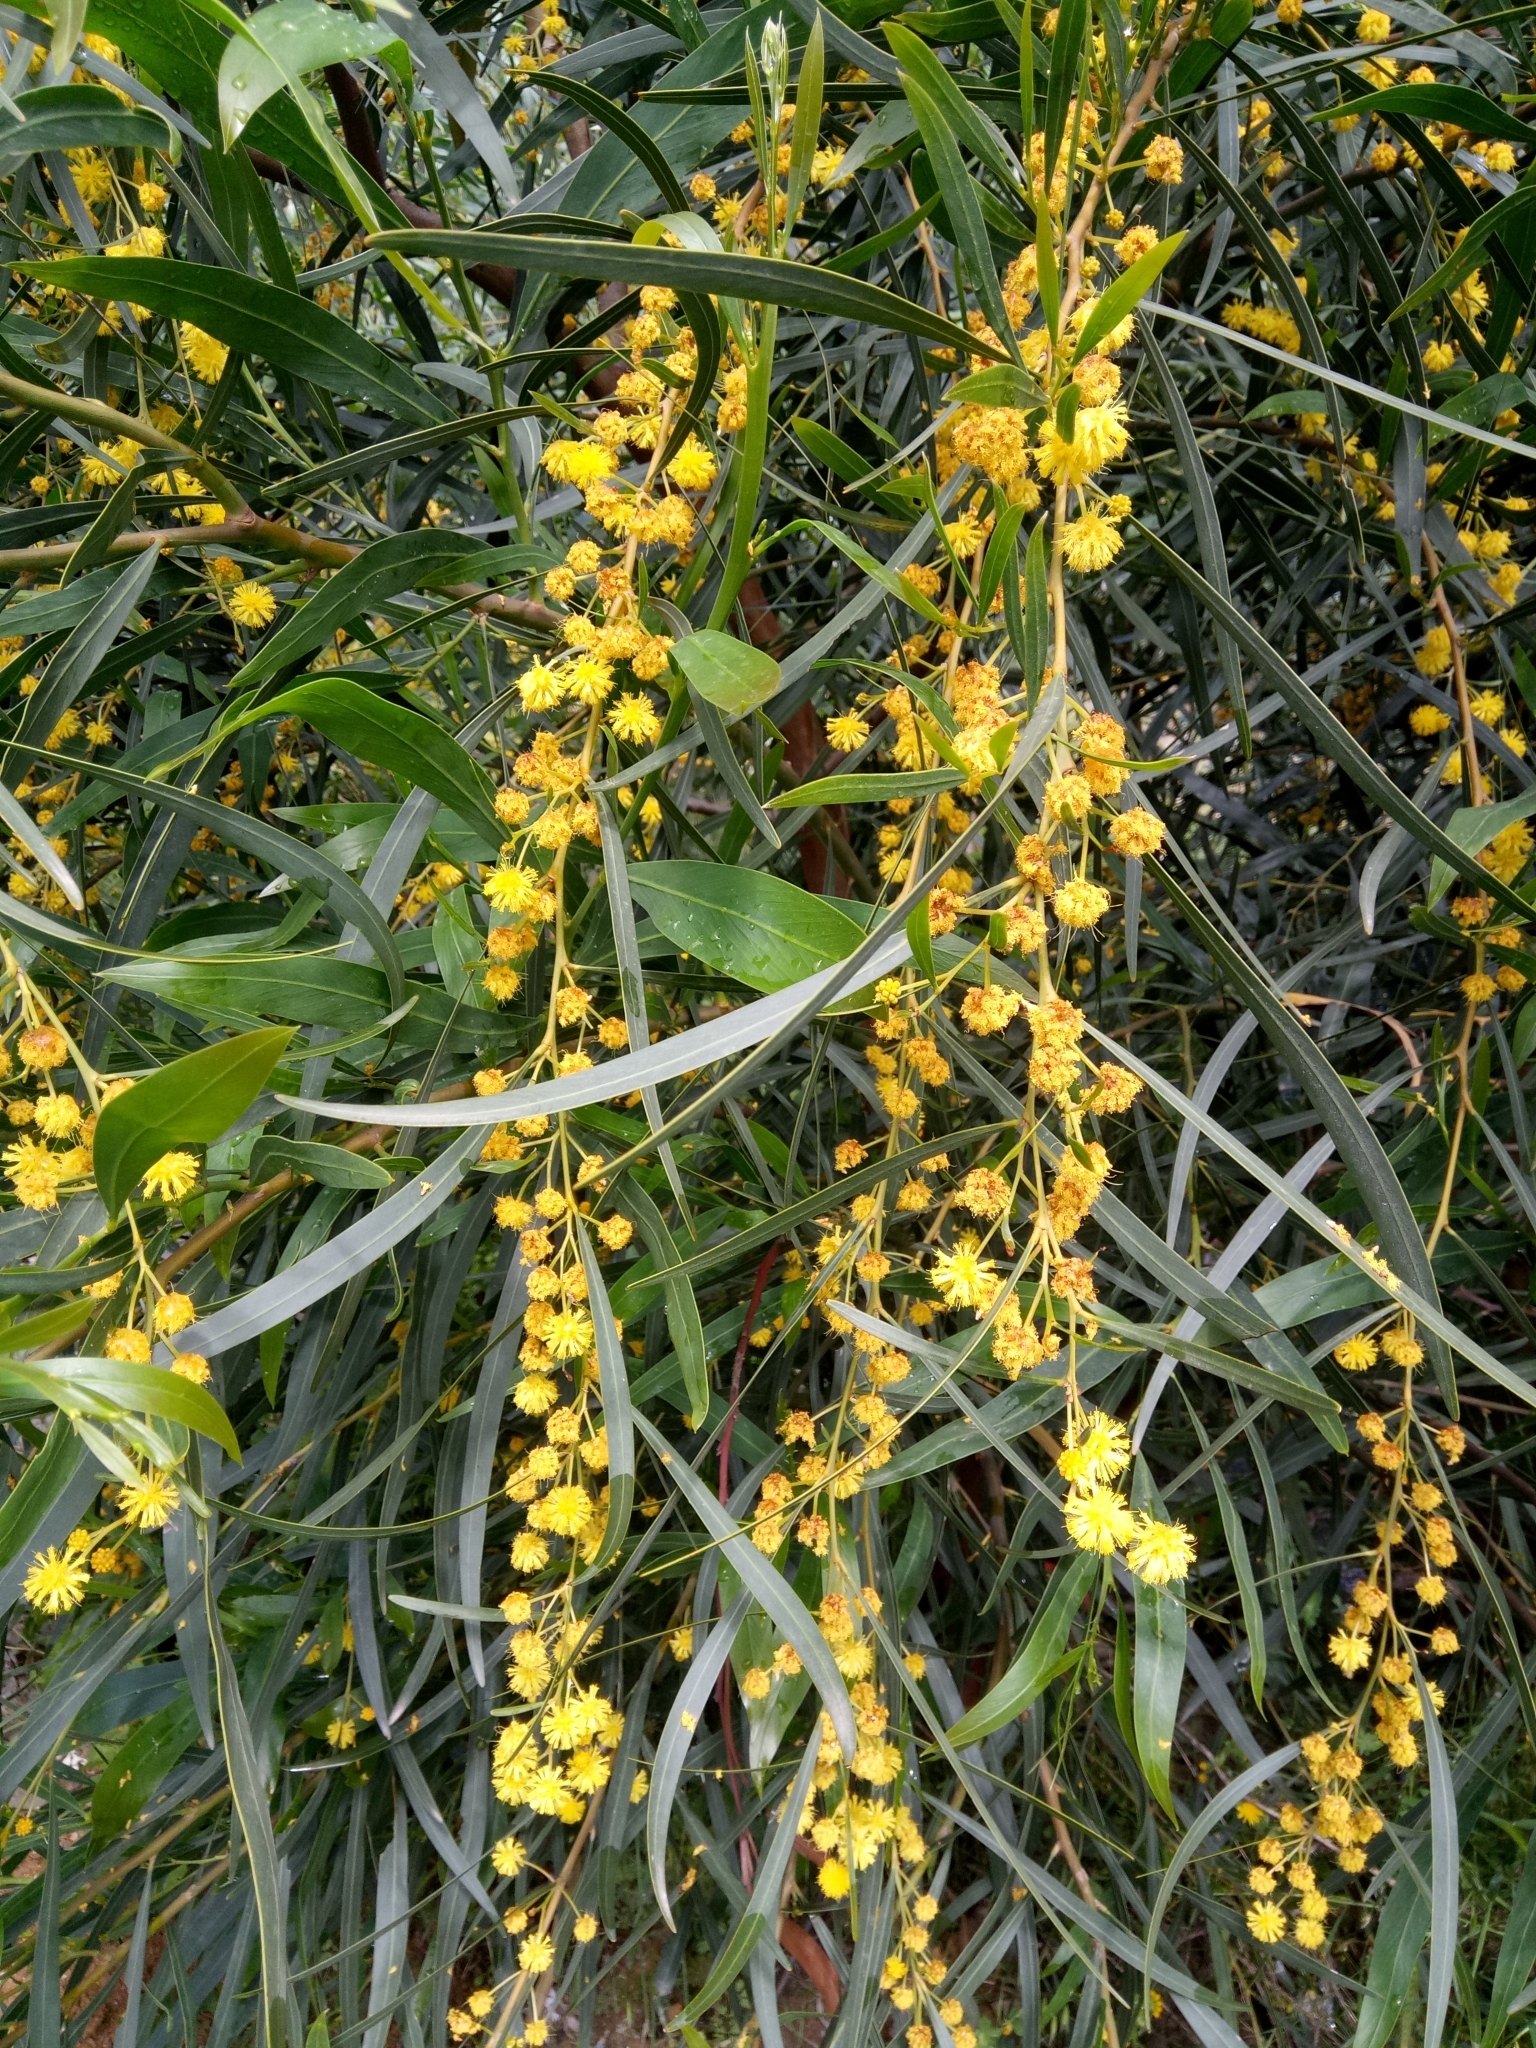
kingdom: Plantae
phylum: Tracheophyta
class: Magnoliopsida
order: Fabales
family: Fabaceae
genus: Acacia
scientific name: Acacia retinodes
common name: Silver wattle
